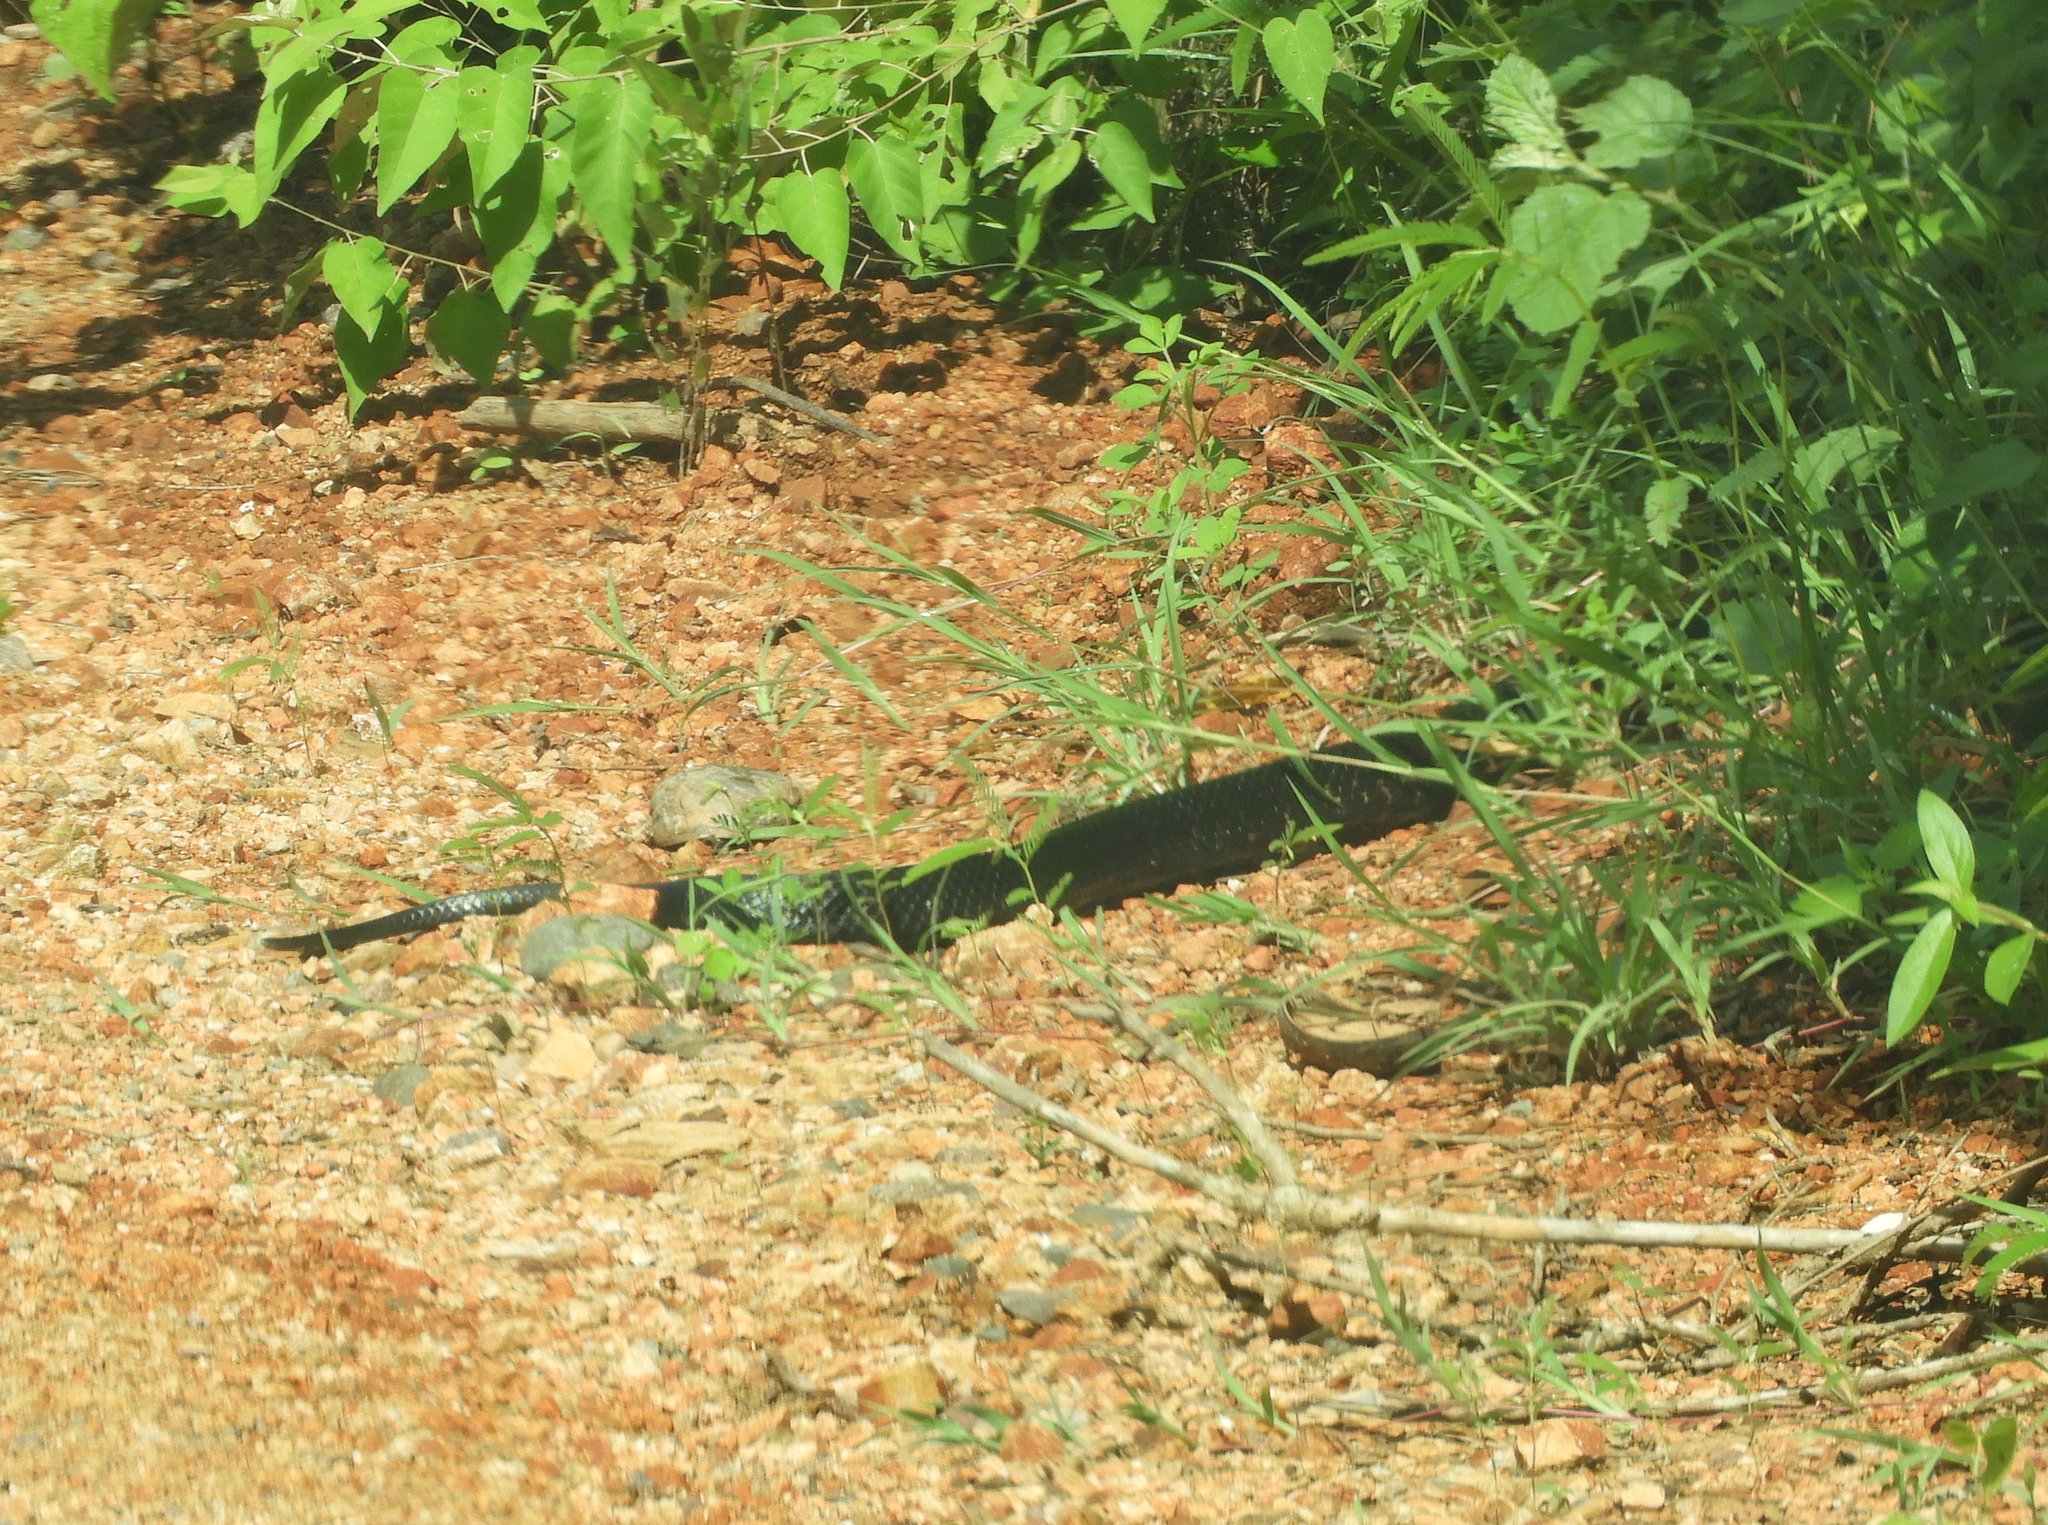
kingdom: Animalia
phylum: Chordata
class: Squamata
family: Colubridae
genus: Drymarchon
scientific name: Drymarchon melanurus
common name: Central american indigo snake
